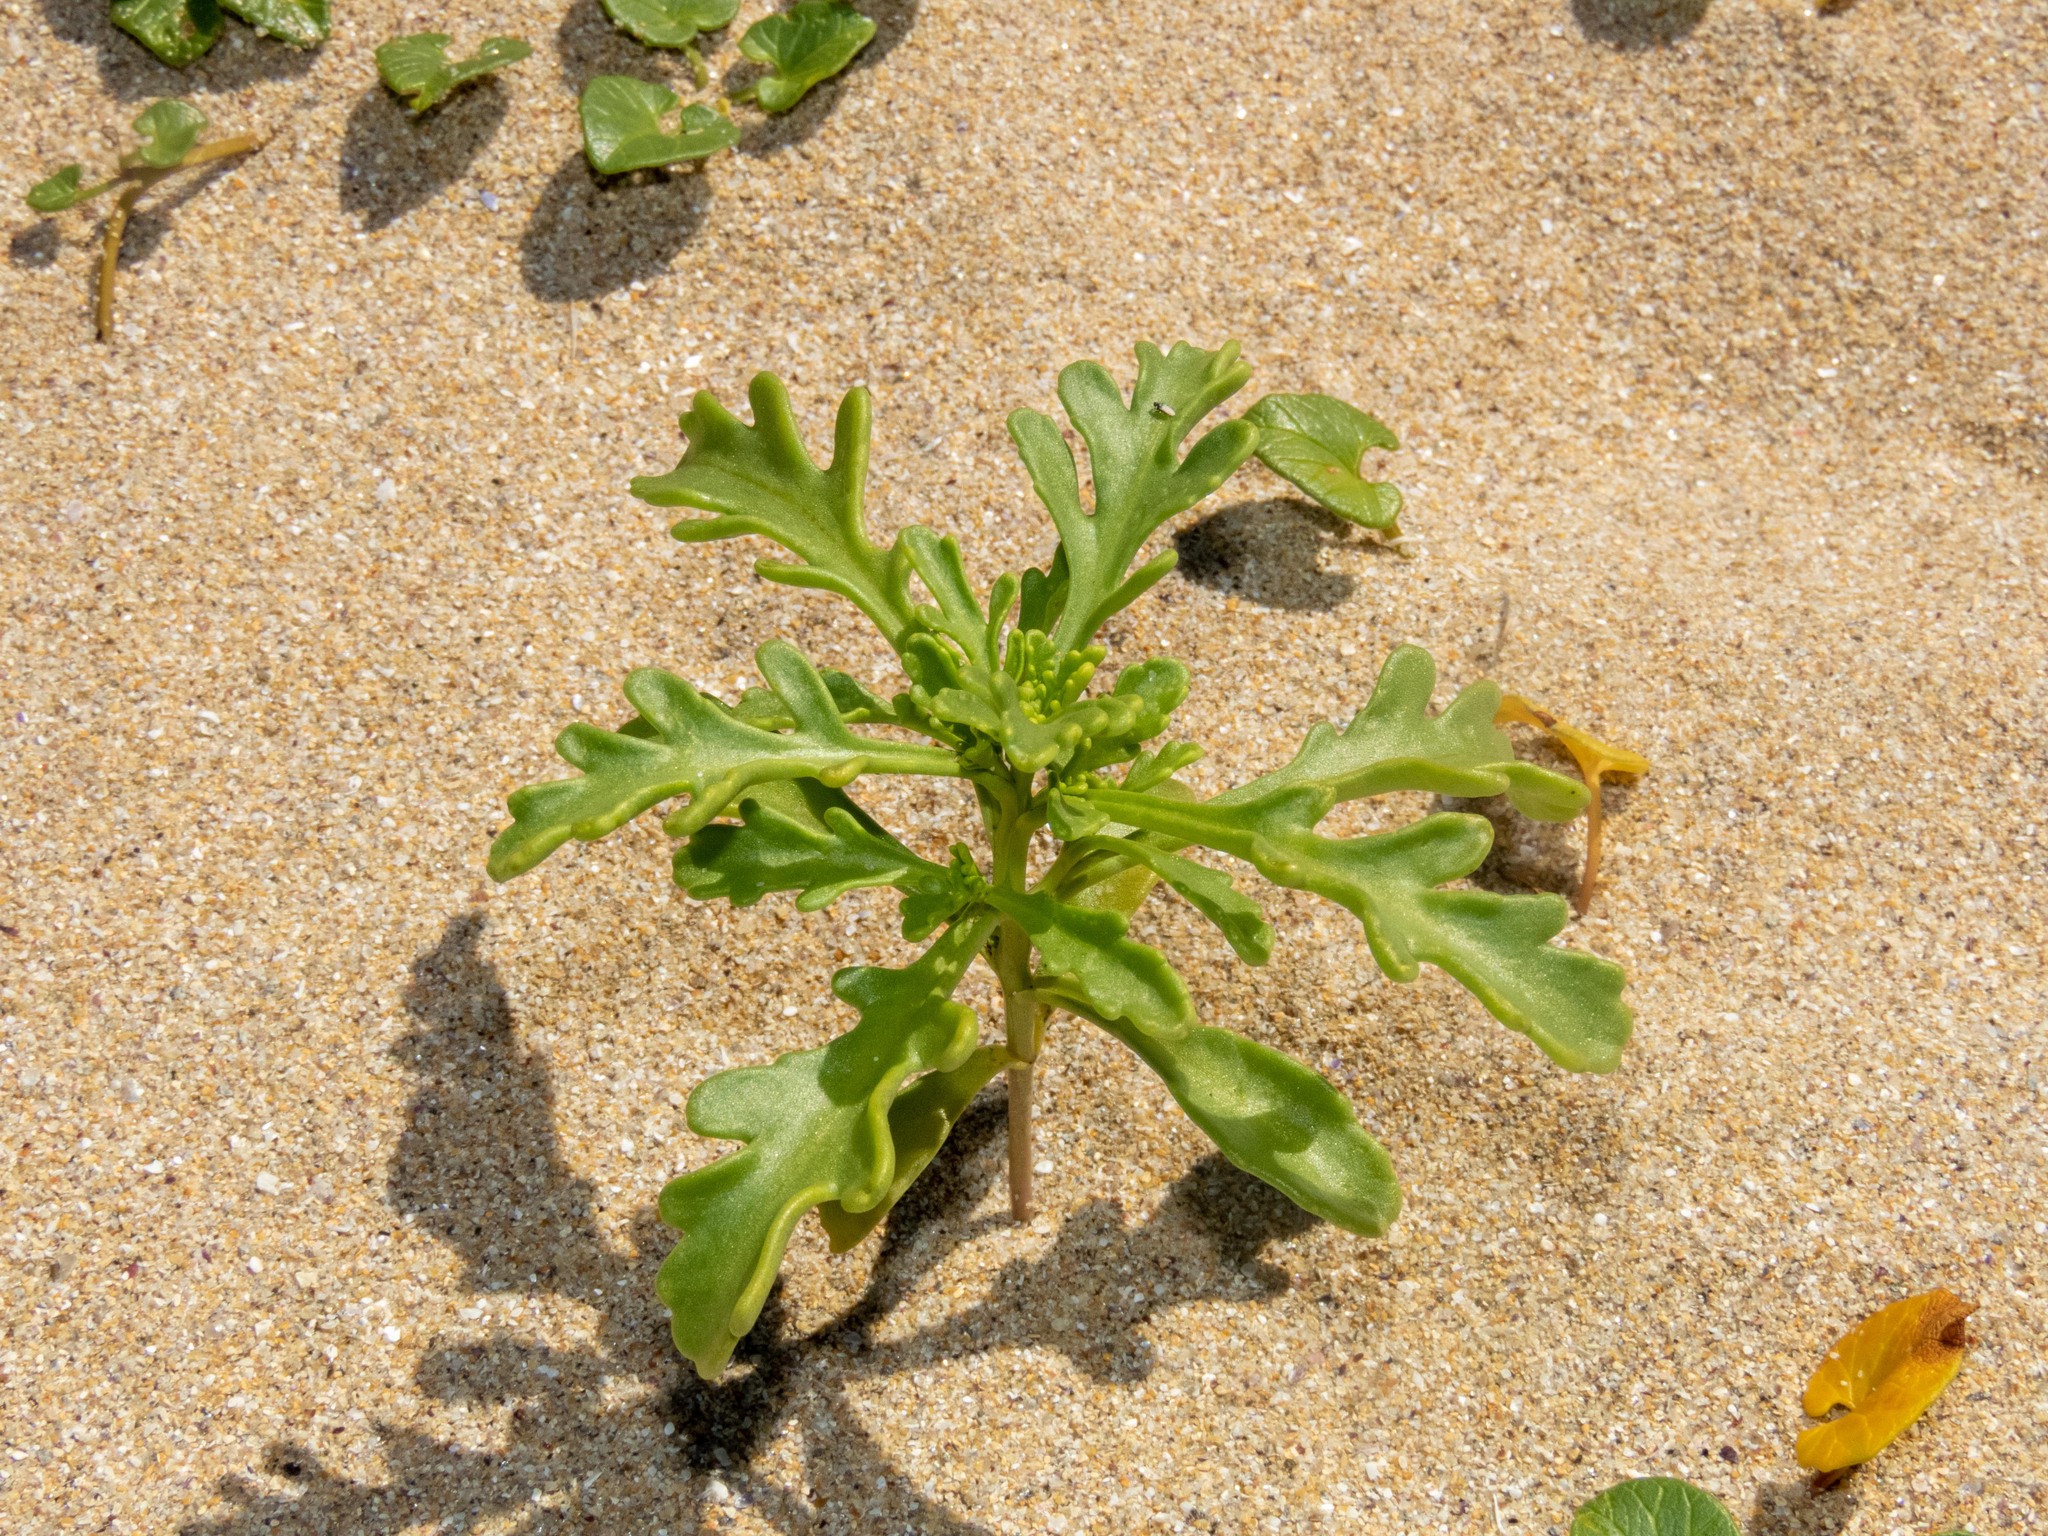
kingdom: Plantae
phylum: Tracheophyta
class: Magnoliopsida
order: Brassicales
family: Brassicaceae
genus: Cakile
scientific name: Cakile maritima
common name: Sea rocket
